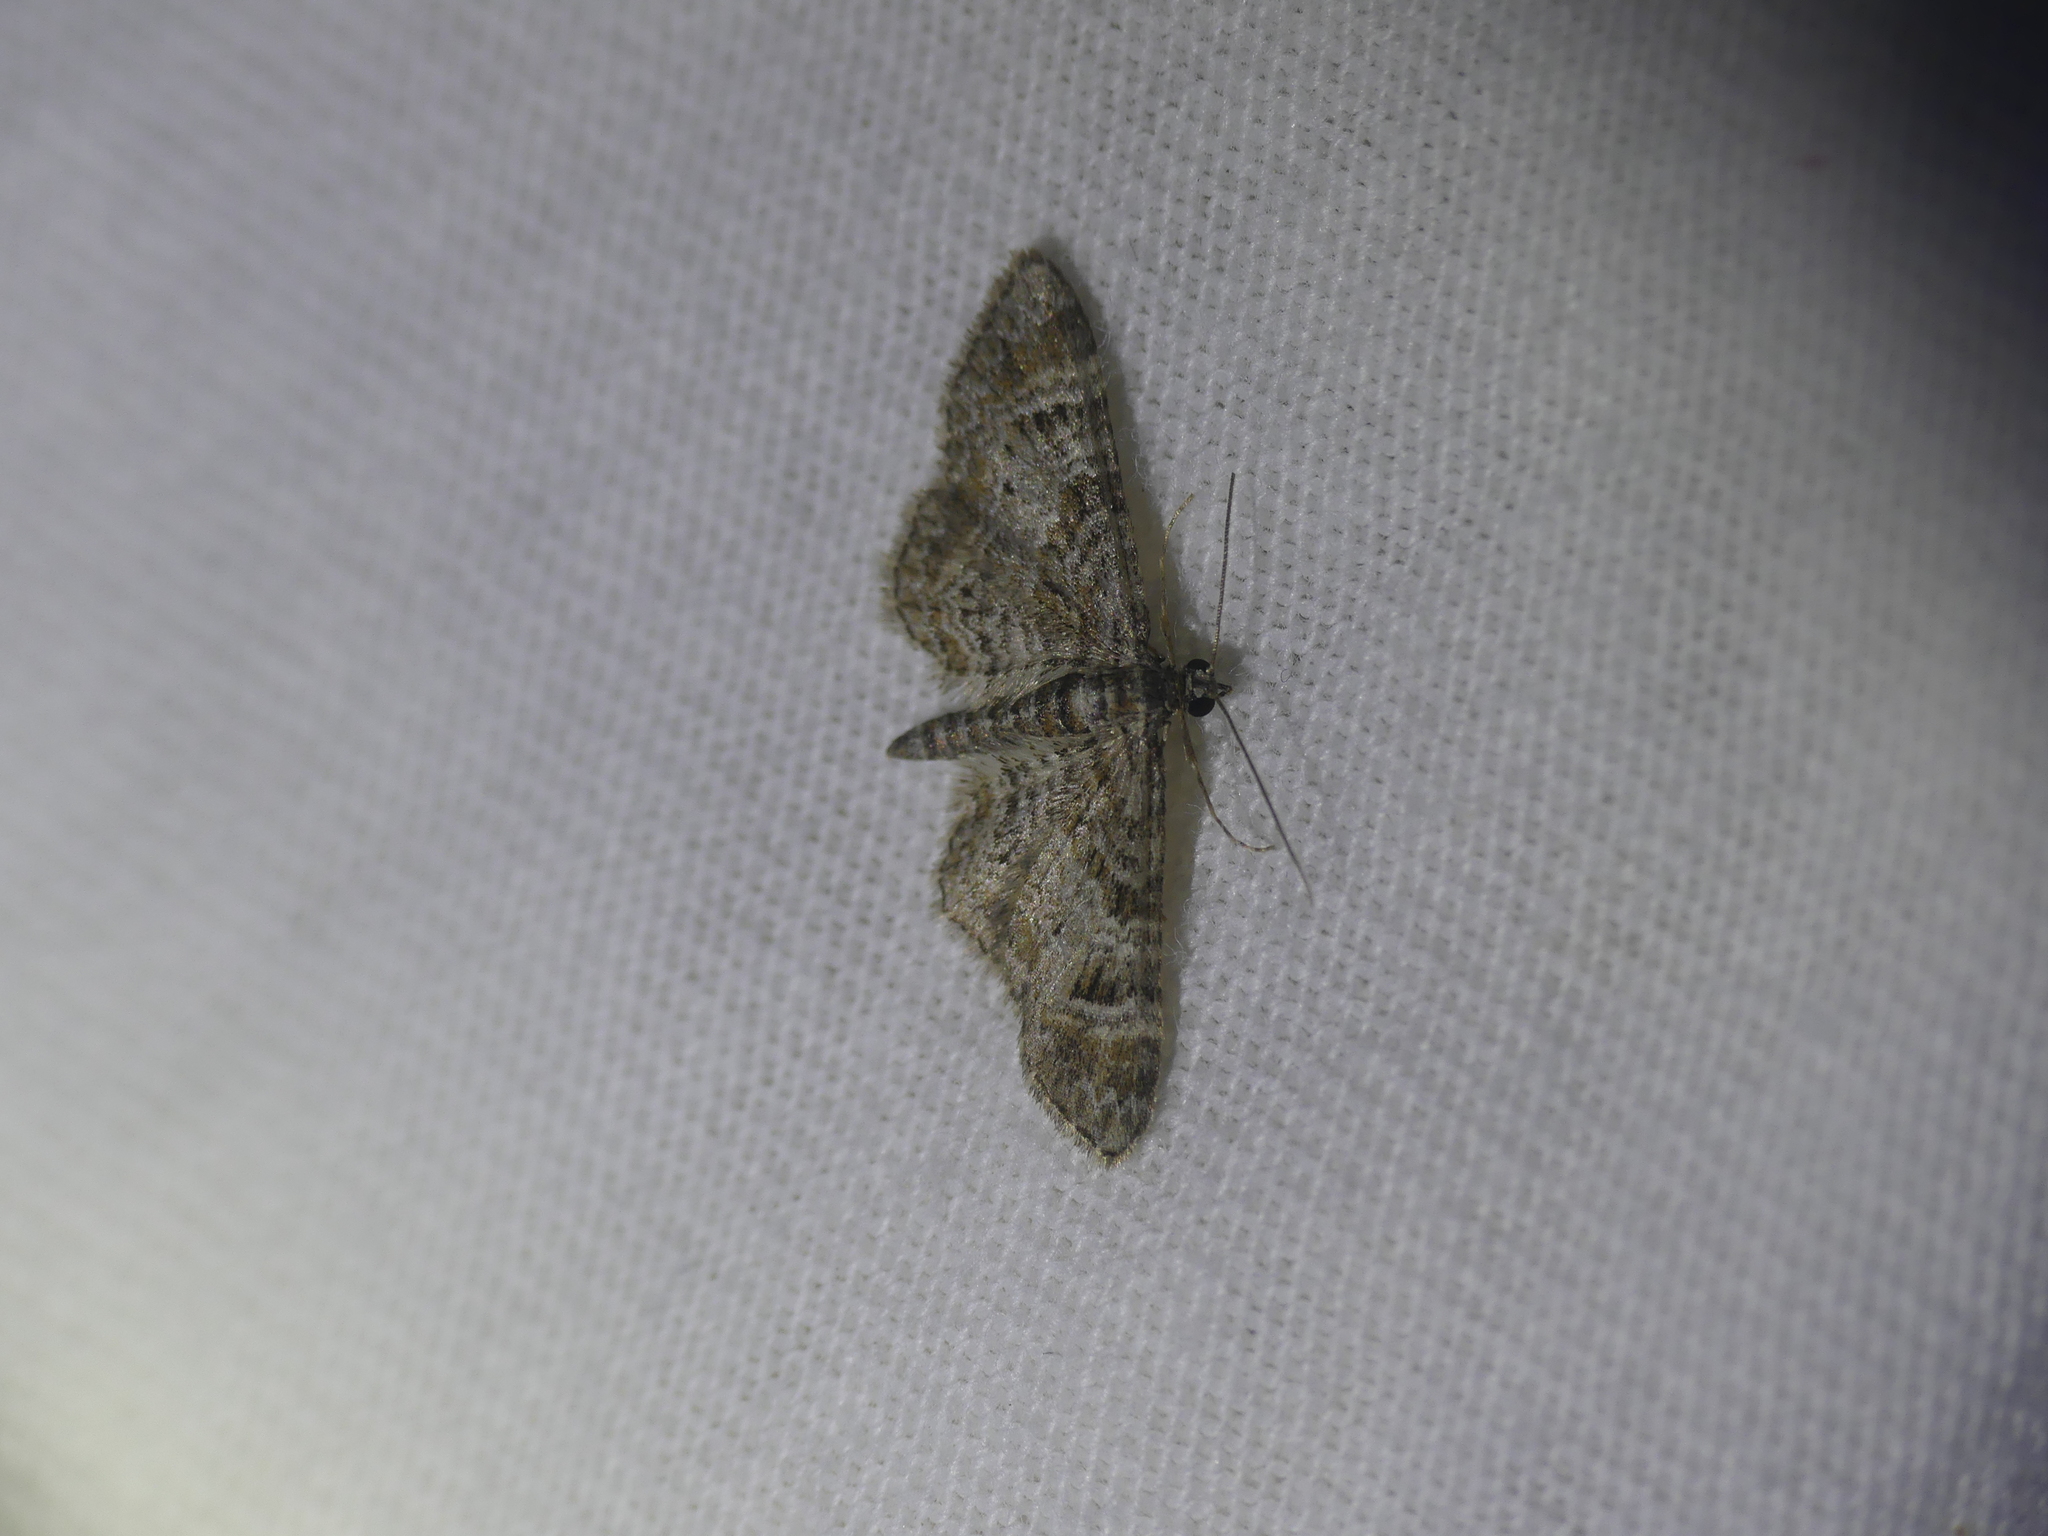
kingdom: Animalia
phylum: Arthropoda
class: Insecta
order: Lepidoptera
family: Geometridae
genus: Gymnoscelis
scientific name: Gymnoscelis rufifasciata
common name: Double-striped pug
